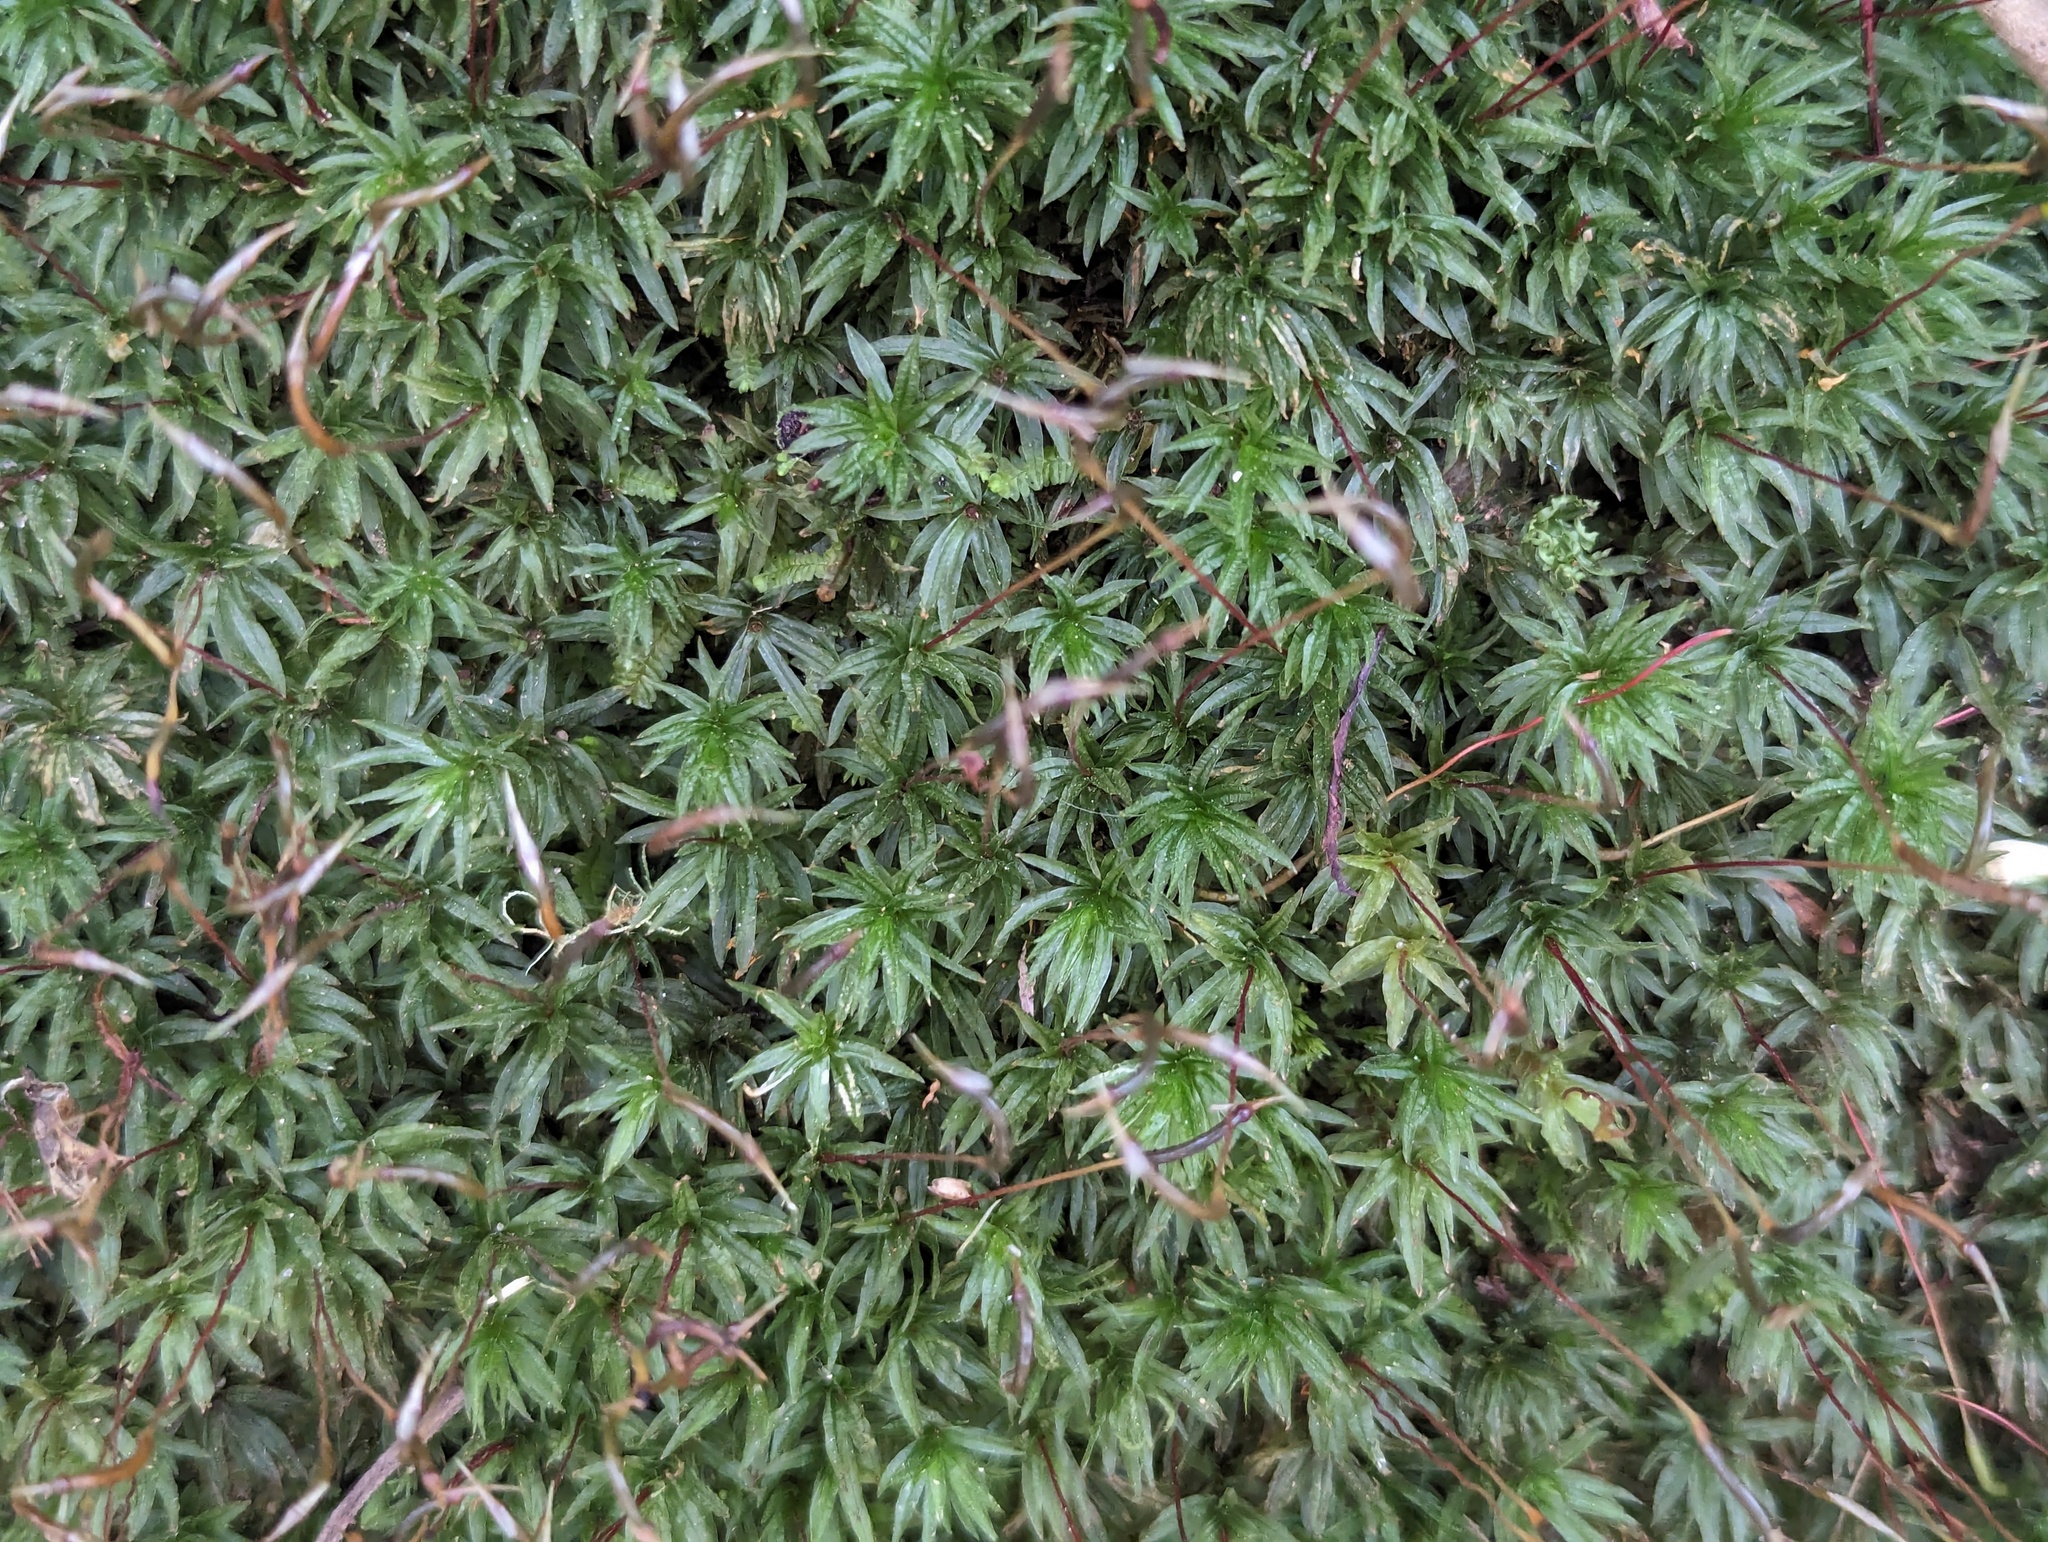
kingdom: Plantae
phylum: Bryophyta
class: Polytrichopsida
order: Polytrichales
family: Polytrichaceae
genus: Atrichum
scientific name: Atrichum androgynum
